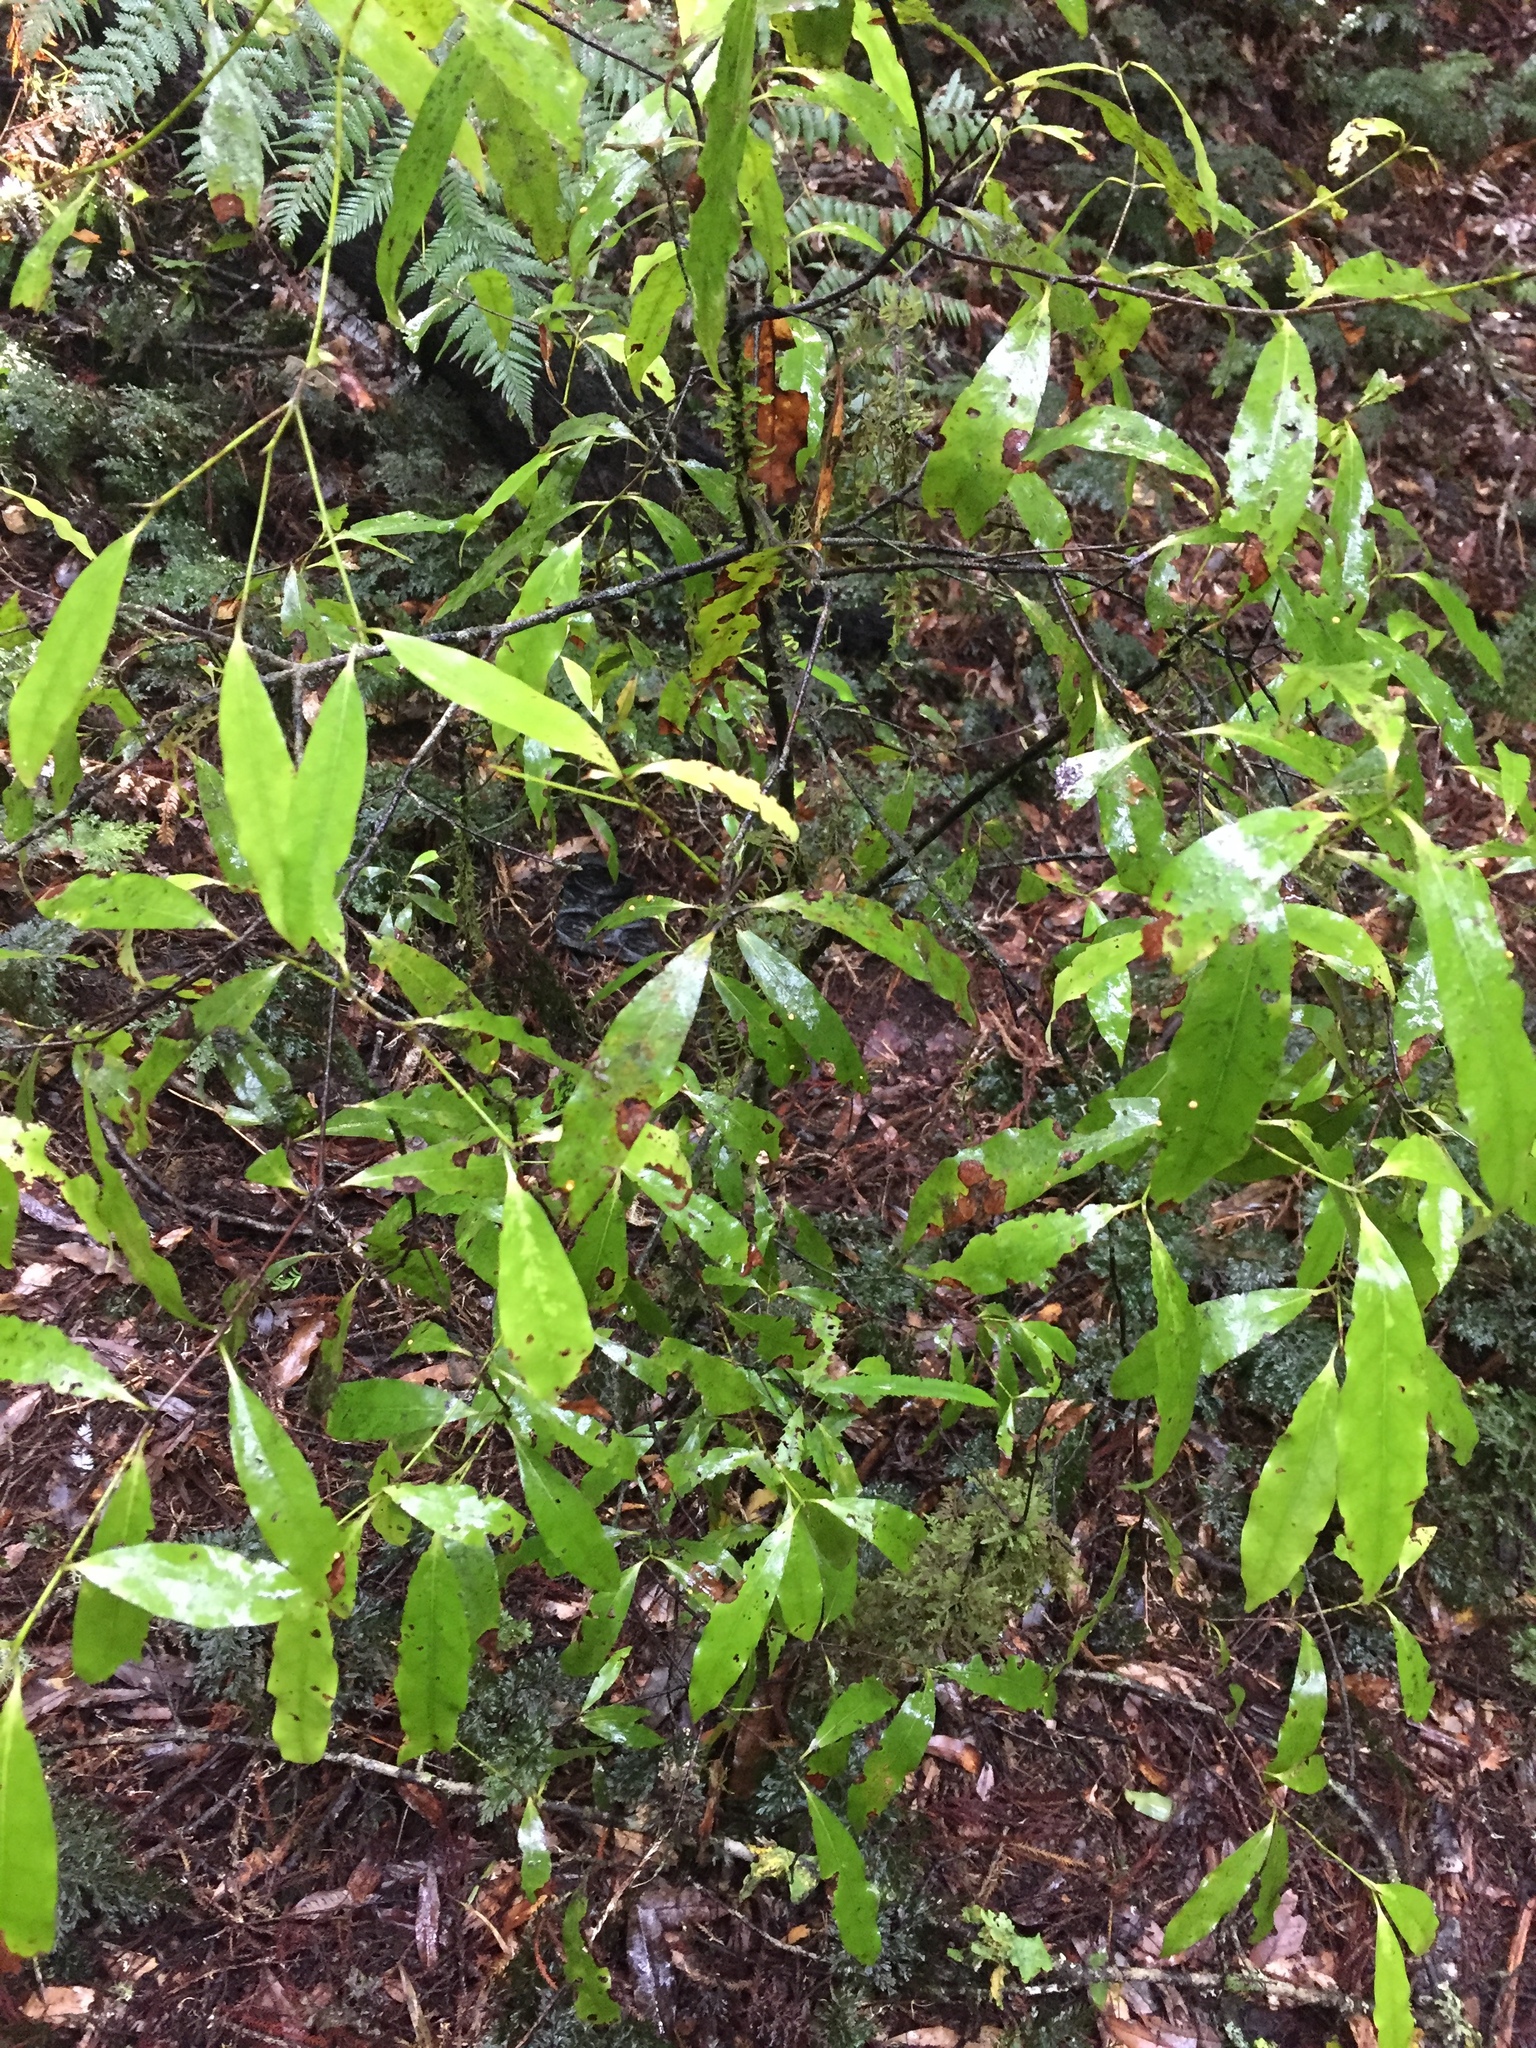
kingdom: Plantae
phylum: Tracheophyta
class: Magnoliopsida
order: Laurales
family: Lauraceae
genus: Beilschmiedia
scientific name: Beilschmiedia tawa
